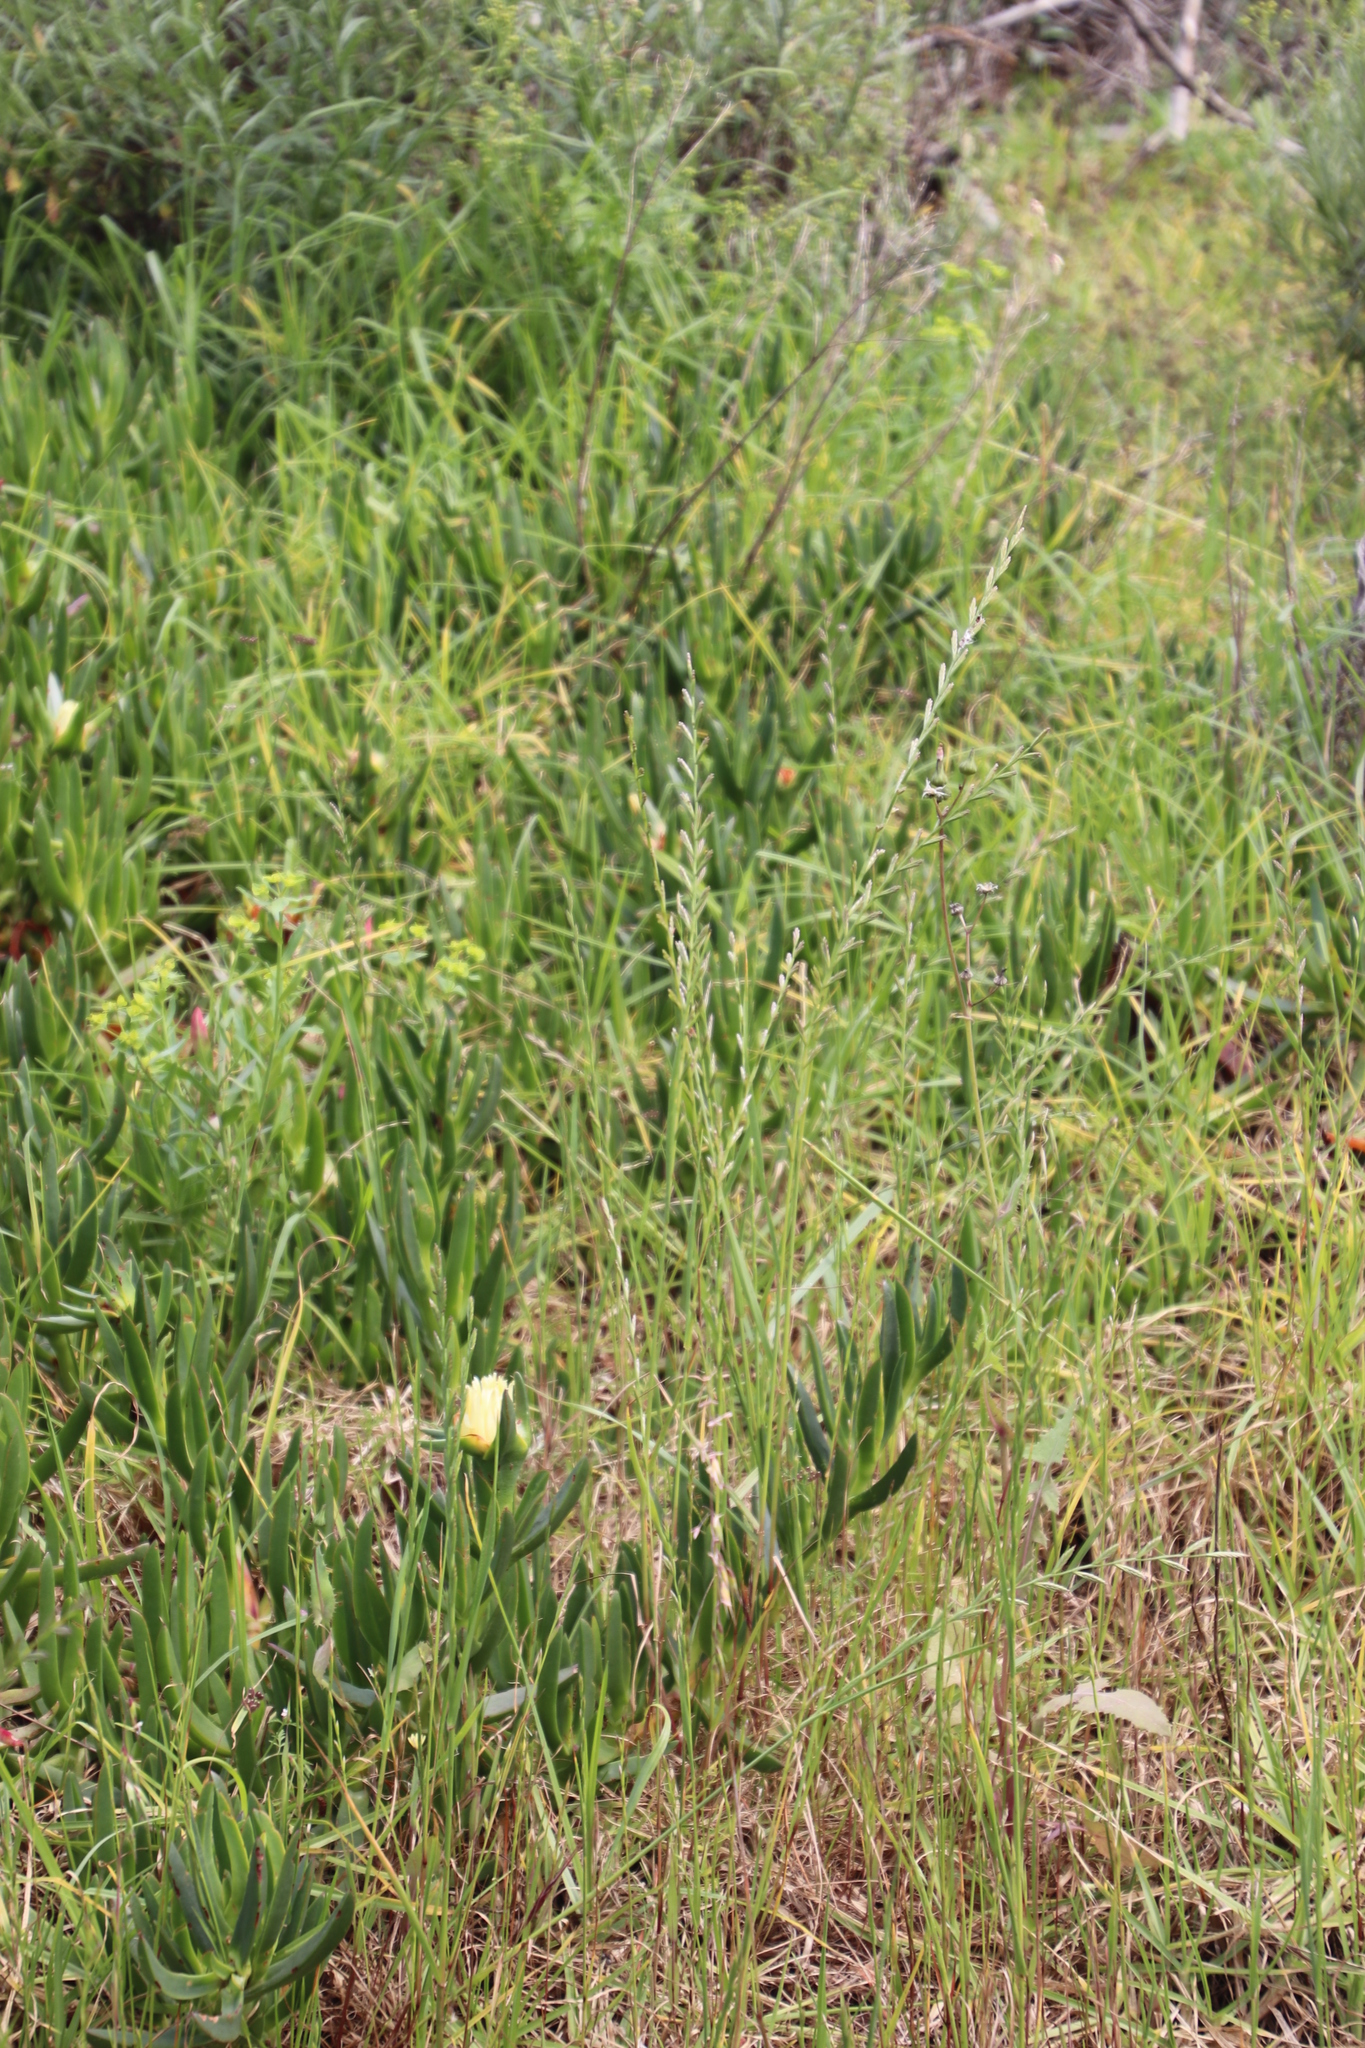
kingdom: Plantae
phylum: Tracheophyta
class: Liliopsida
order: Poales
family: Poaceae
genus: Lolium
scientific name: Lolium perenne
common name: Perennial ryegrass
